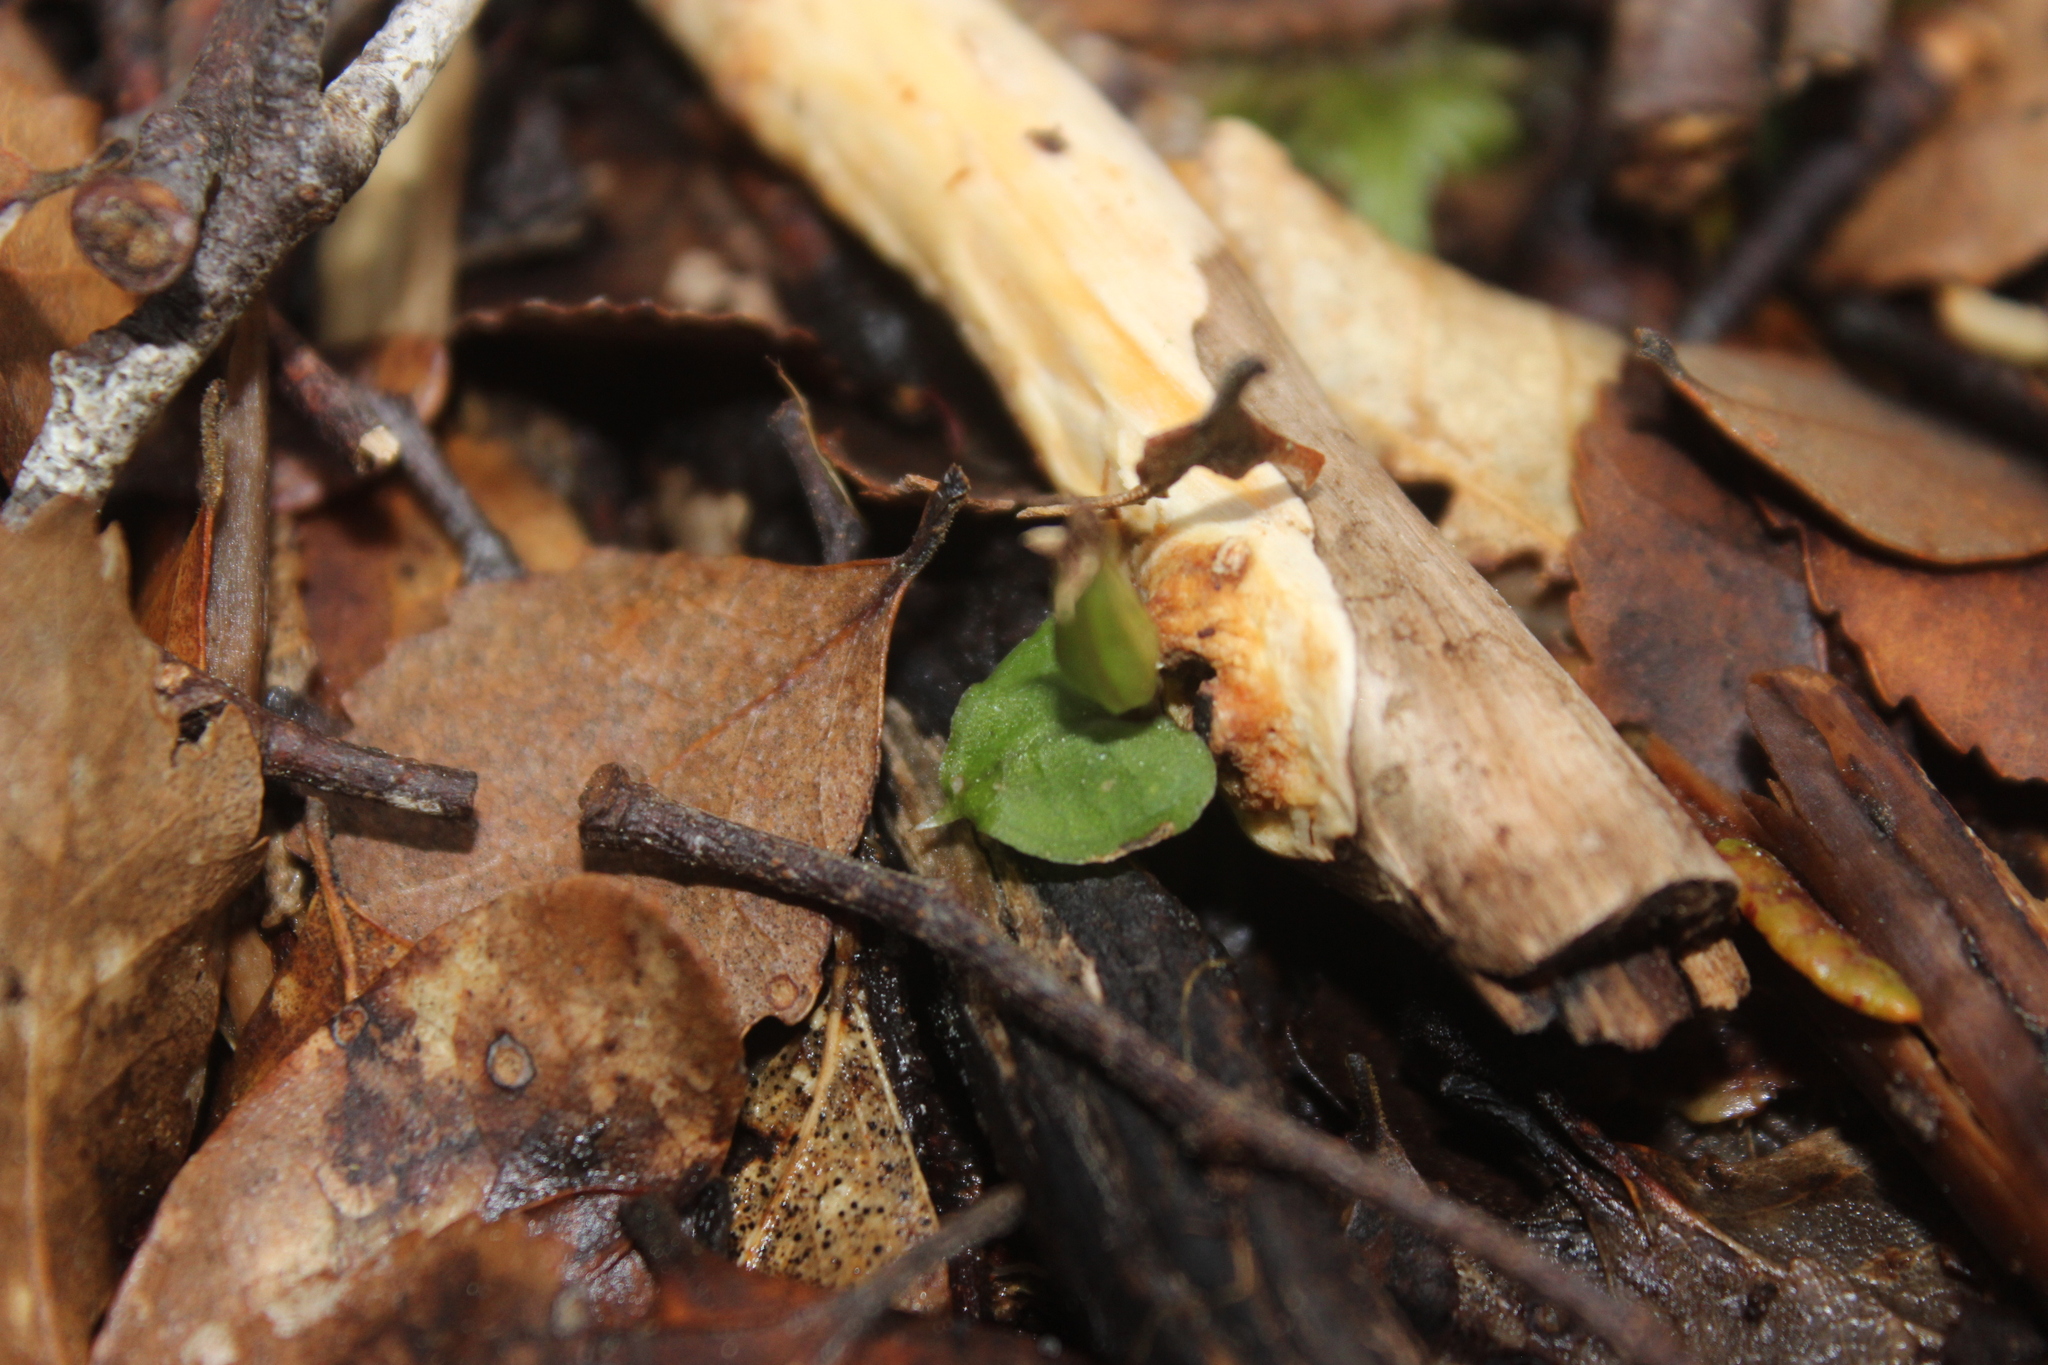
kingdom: Plantae
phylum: Tracheophyta
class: Liliopsida
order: Asparagales
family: Orchidaceae
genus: Corybas
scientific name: Corybas cheesemanii
